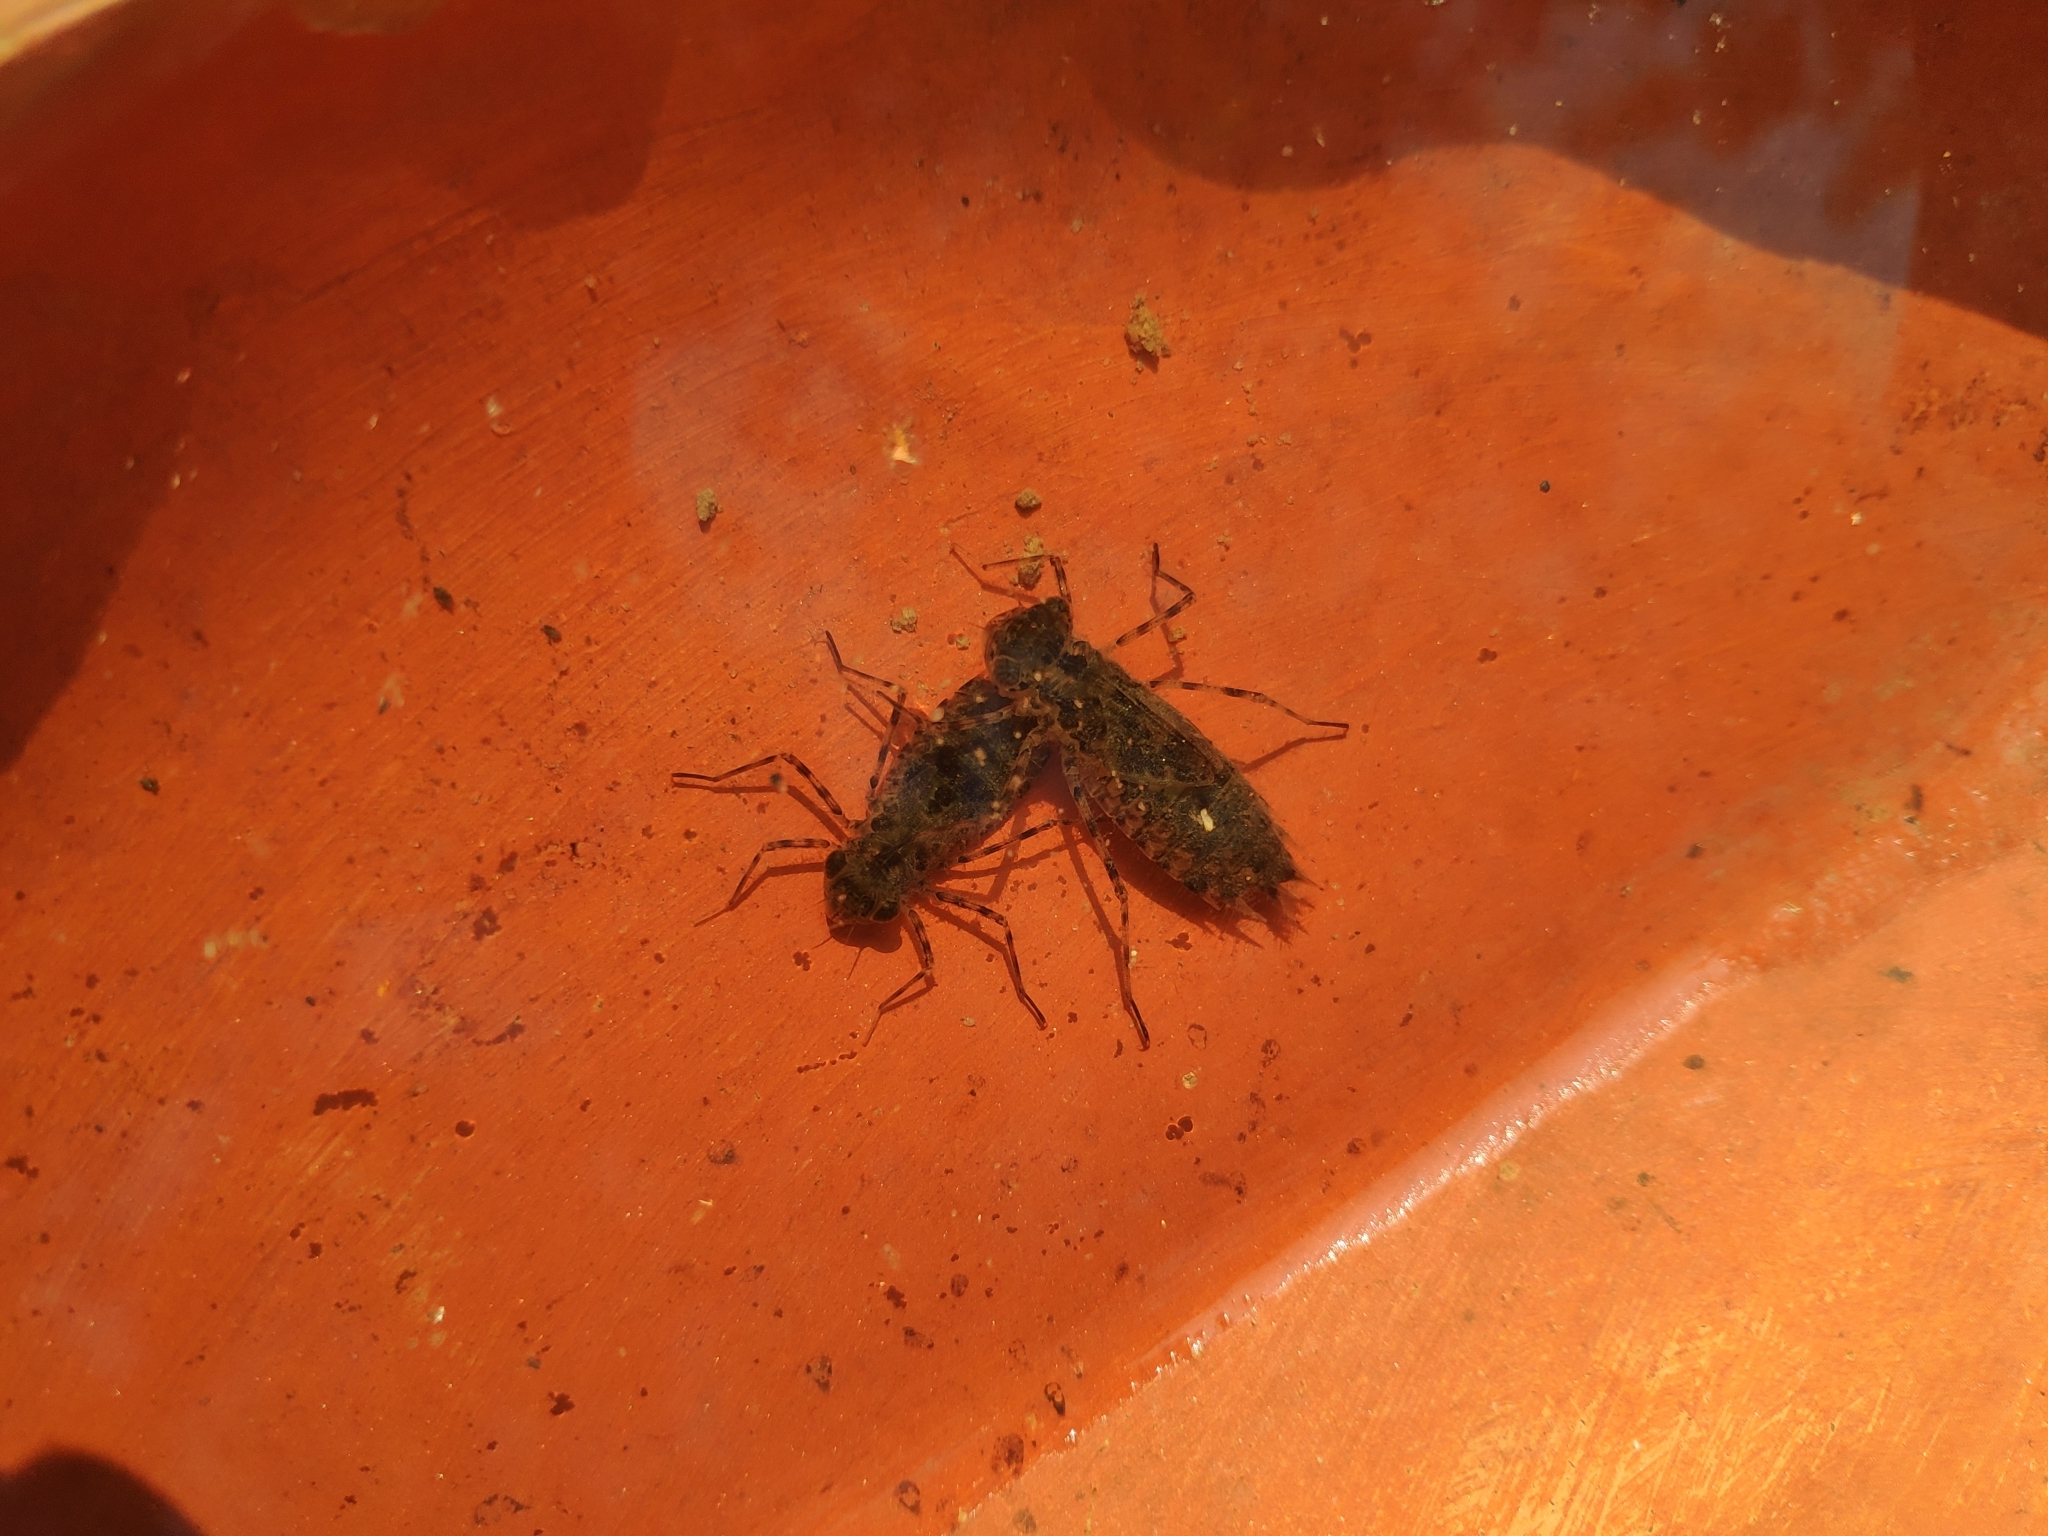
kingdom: Animalia
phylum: Arthropoda
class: Insecta
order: Odonata
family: Libellulidae
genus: Pantala
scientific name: Pantala flavescens
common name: Wandering glider
